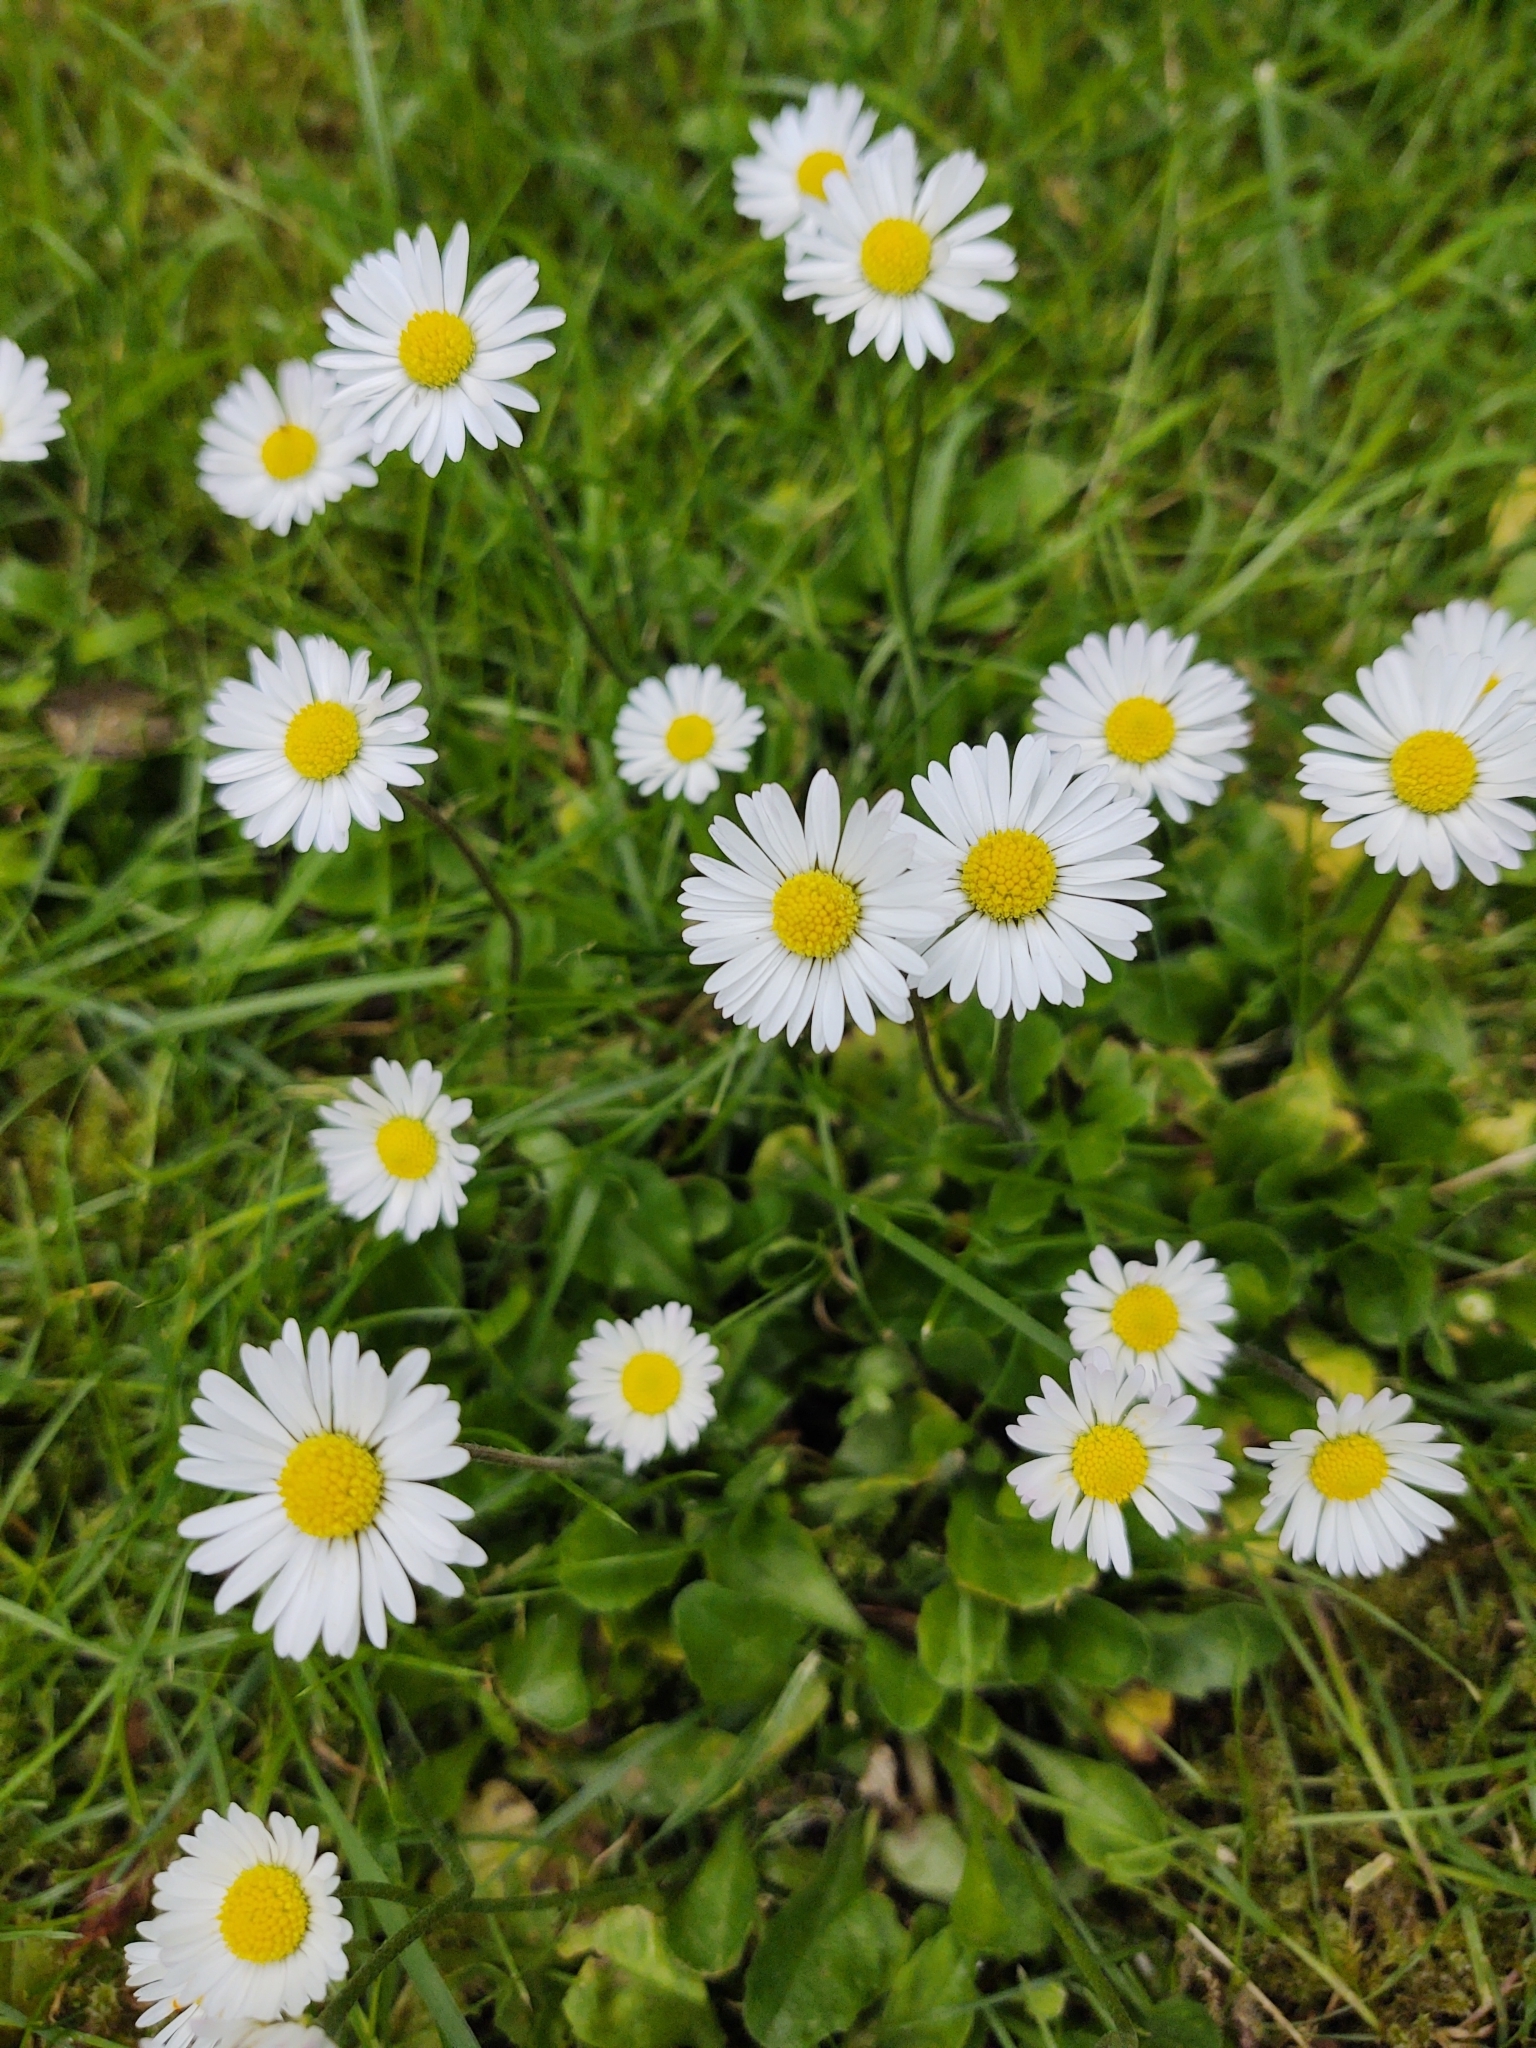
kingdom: Plantae
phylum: Tracheophyta
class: Magnoliopsida
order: Asterales
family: Asteraceae
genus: Bellis
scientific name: Bellis perennis
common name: Lawndaisy
